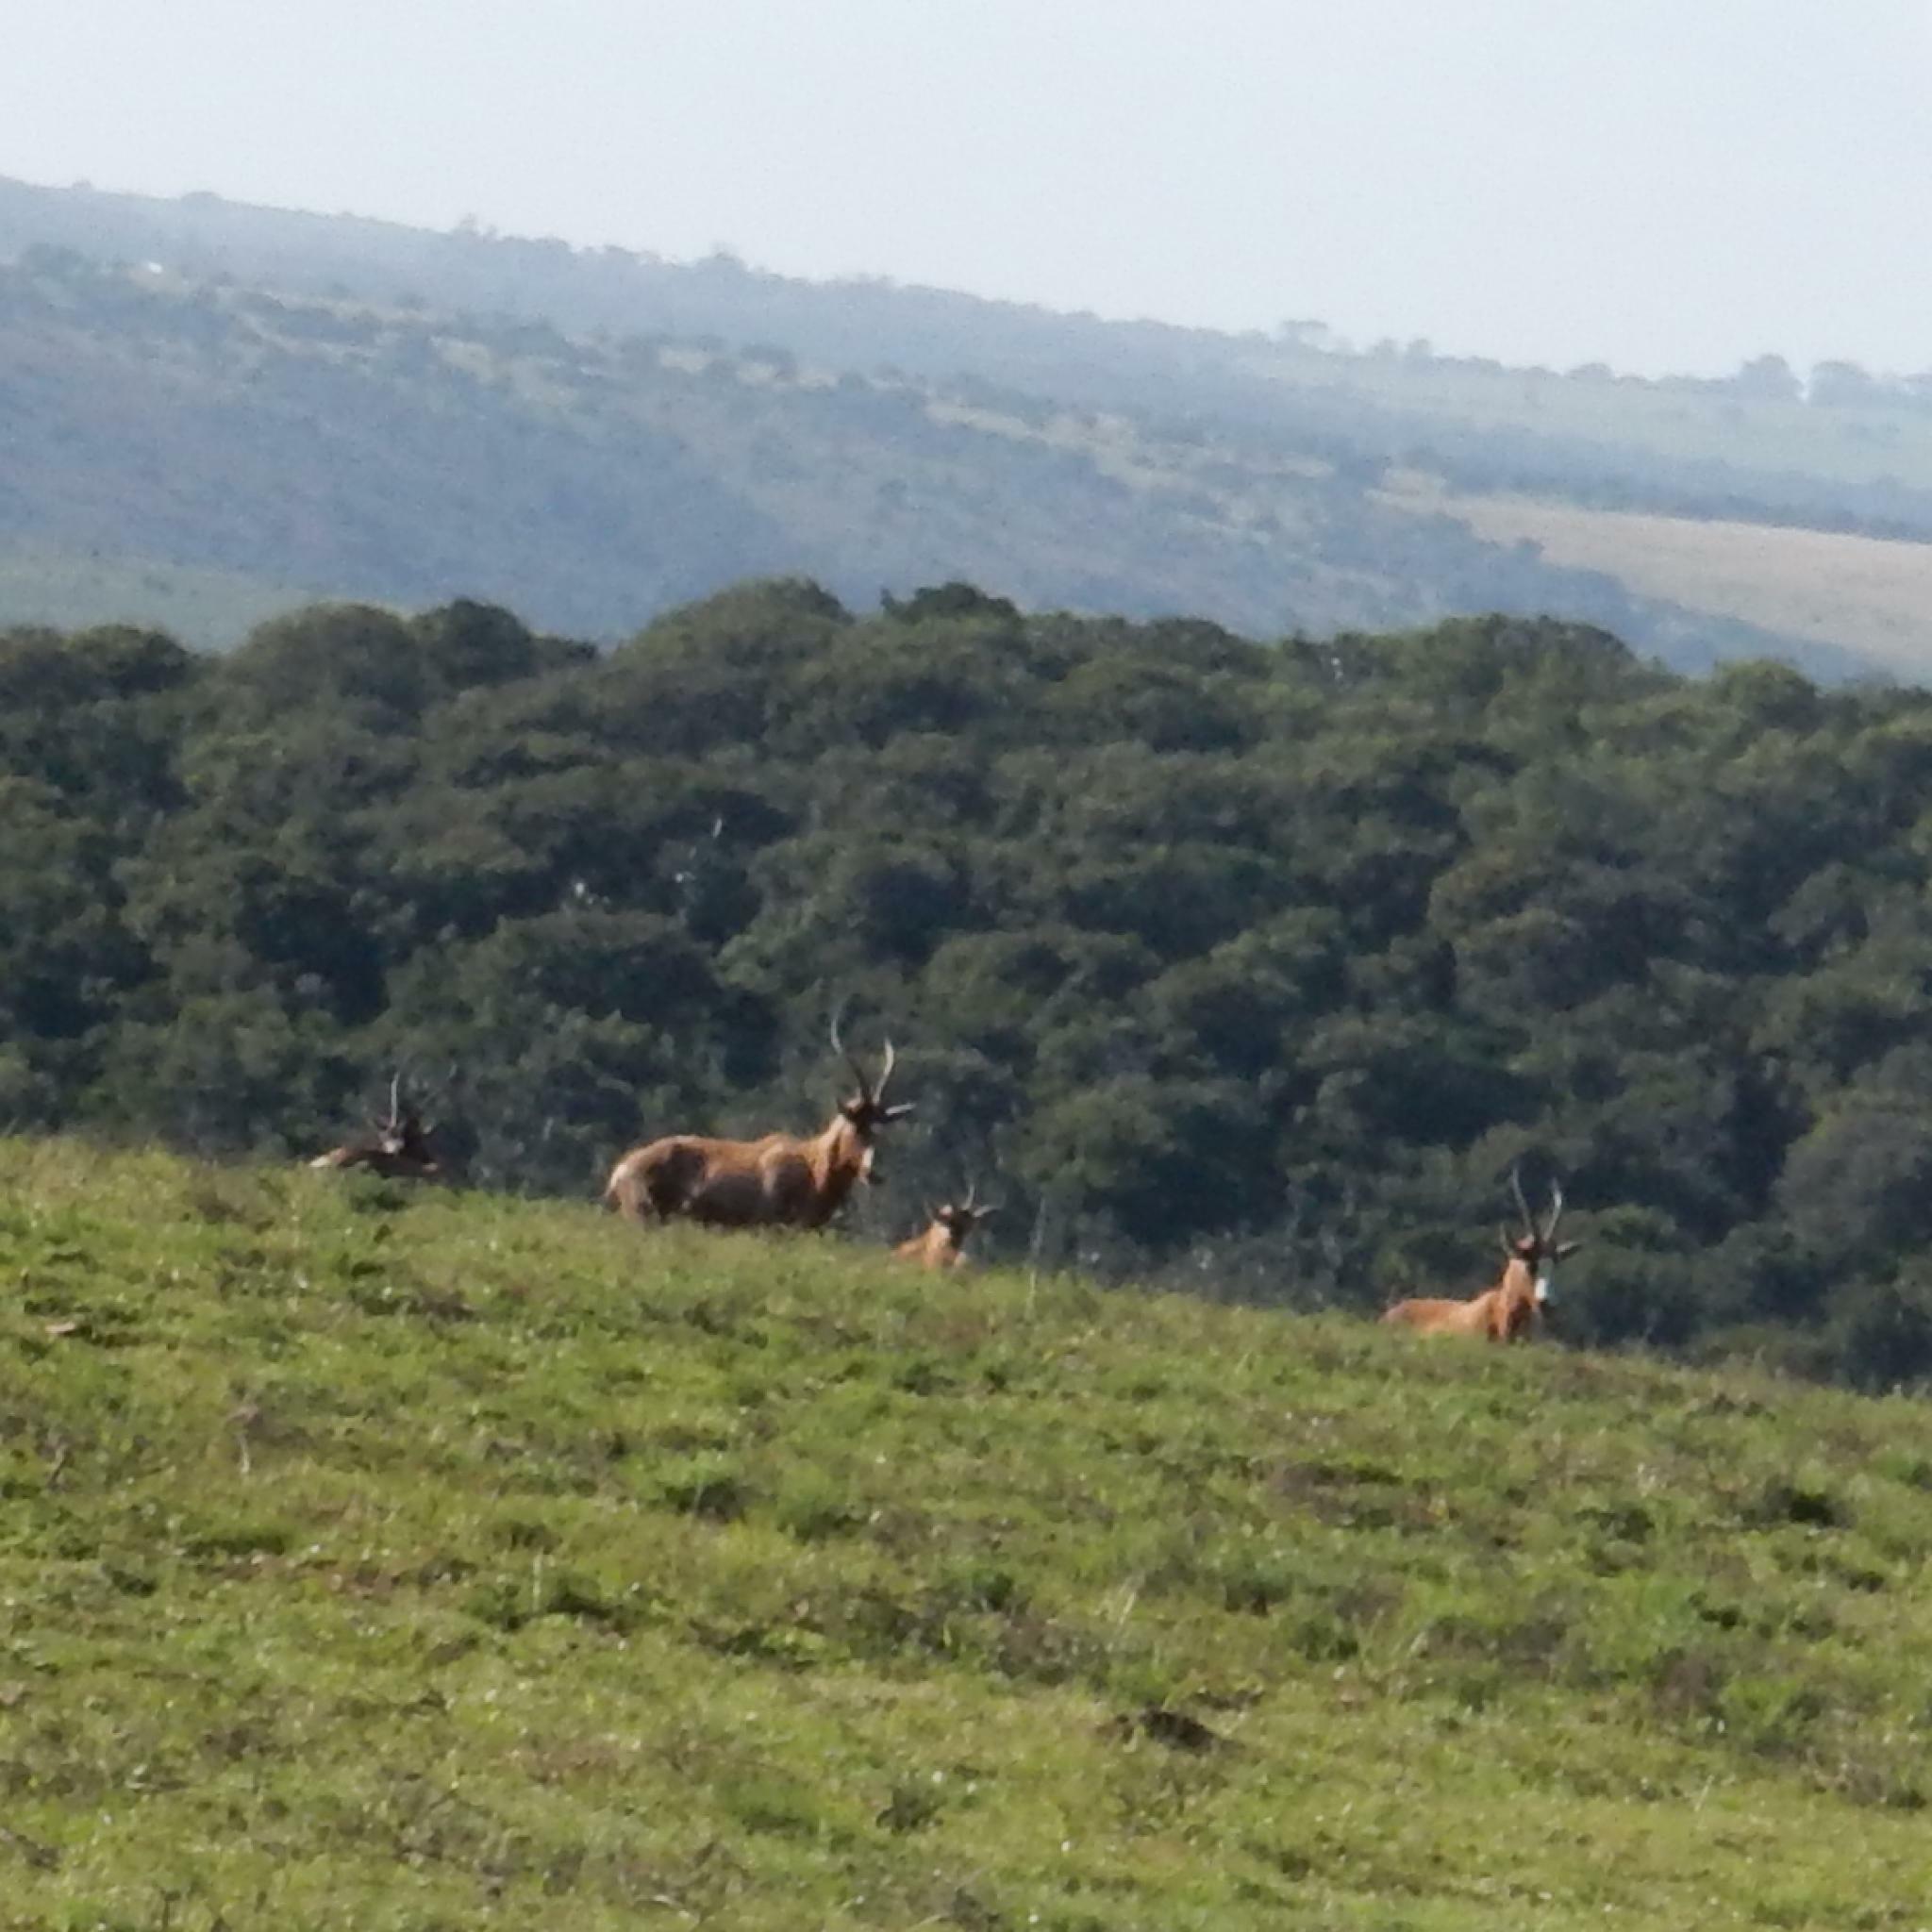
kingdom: Animalia
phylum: Chordata
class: Mammalia
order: Artiodactyla
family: Bovidae
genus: Damaliscus
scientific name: Damaliscus pygargus
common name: Bontebok
